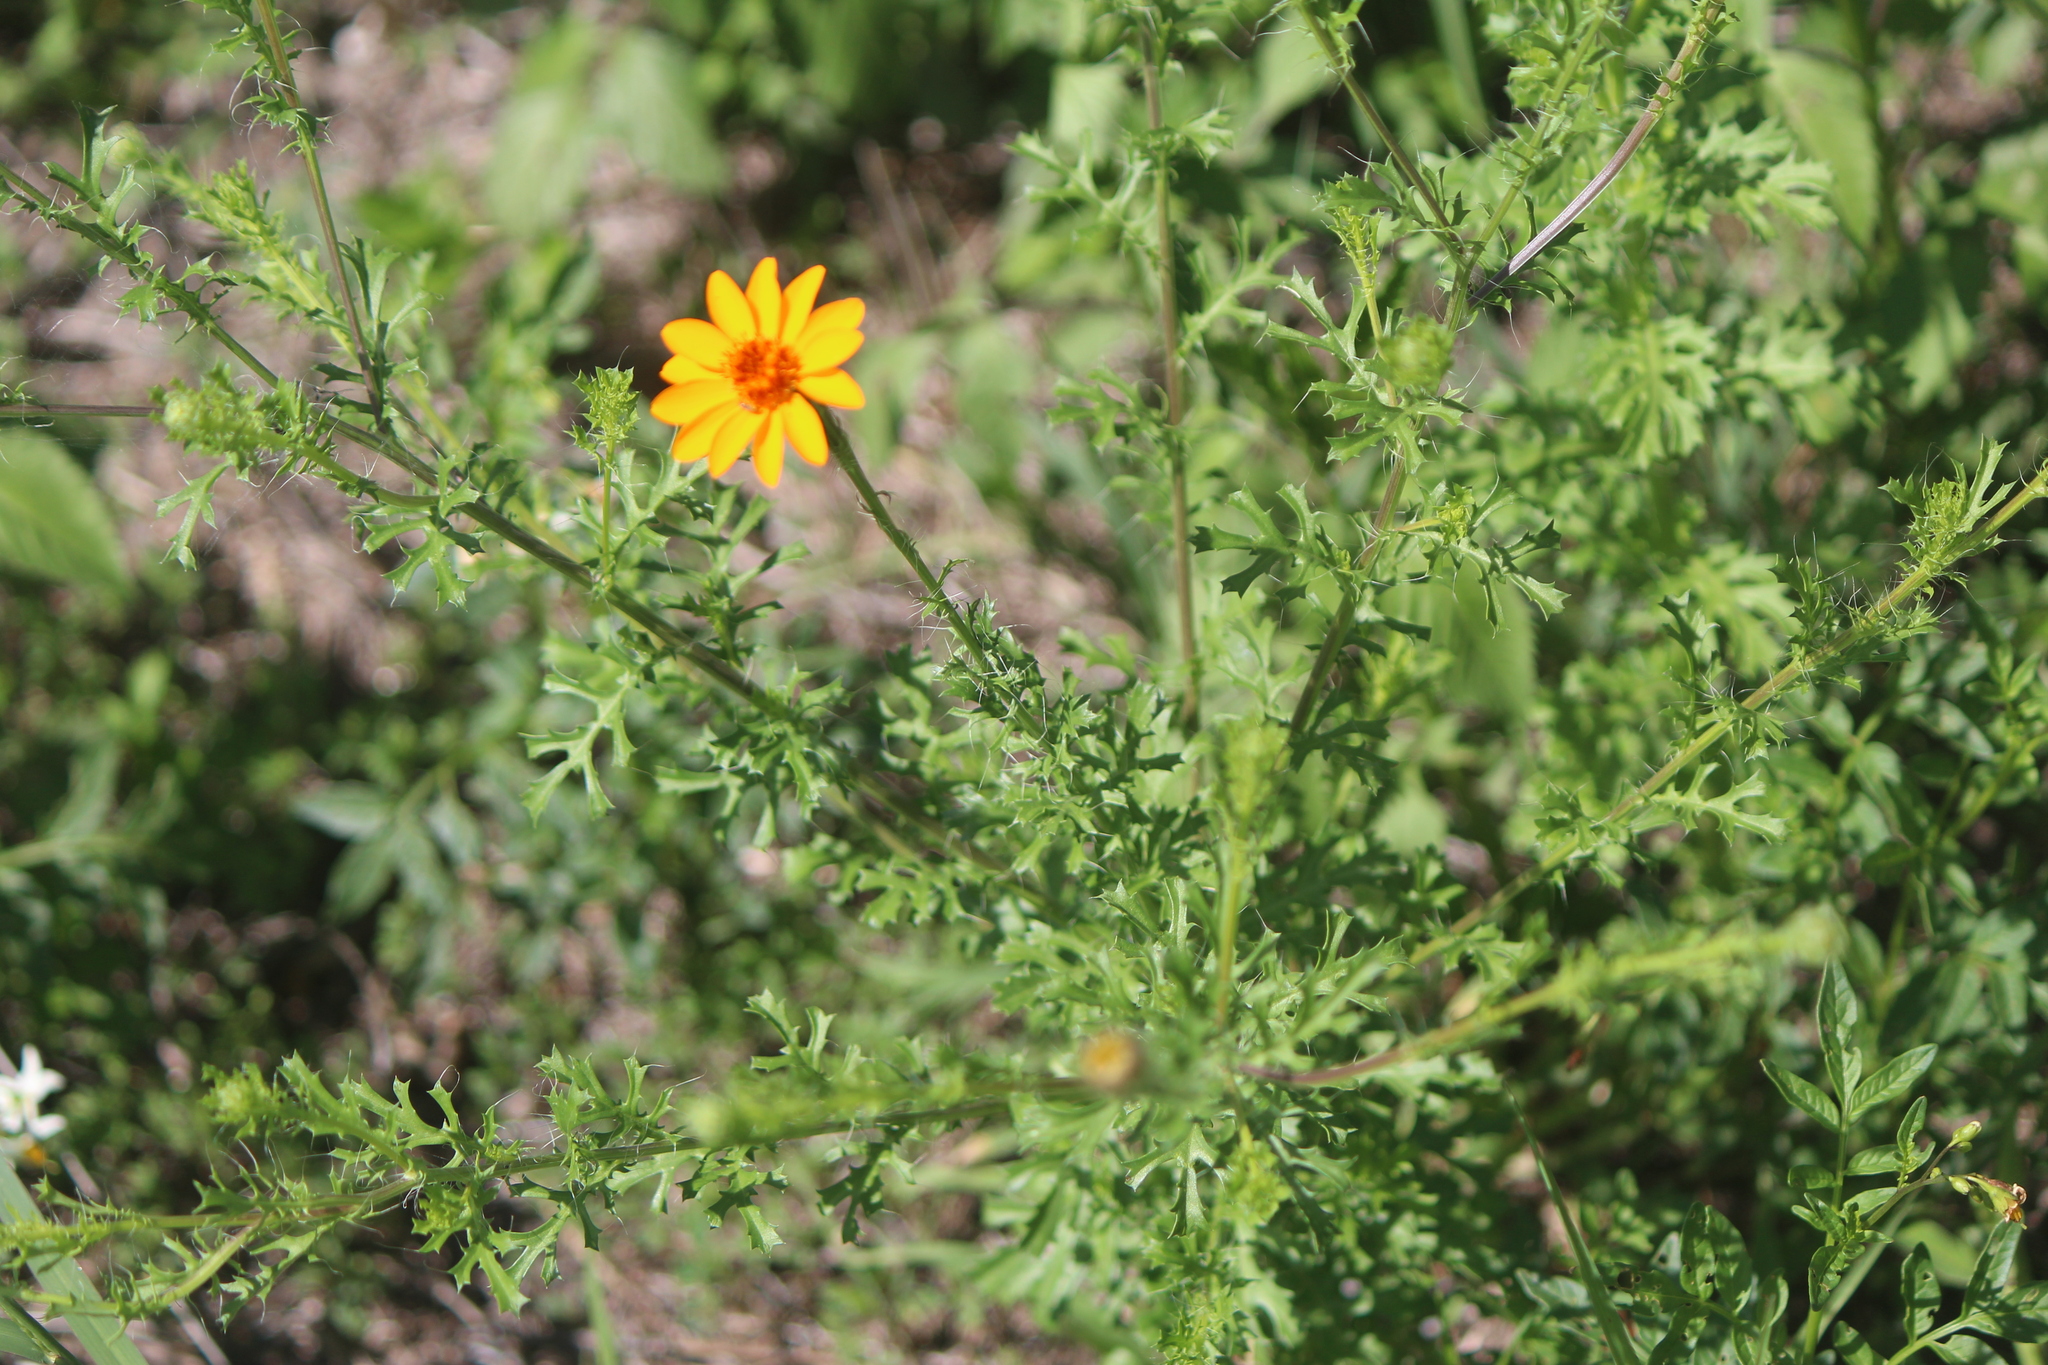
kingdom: Plantae
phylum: Tracheophyta
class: Magnoliopsida
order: Asterales
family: Asteraceae
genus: Adenophyllum
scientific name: Adenophyllum cancellatum
